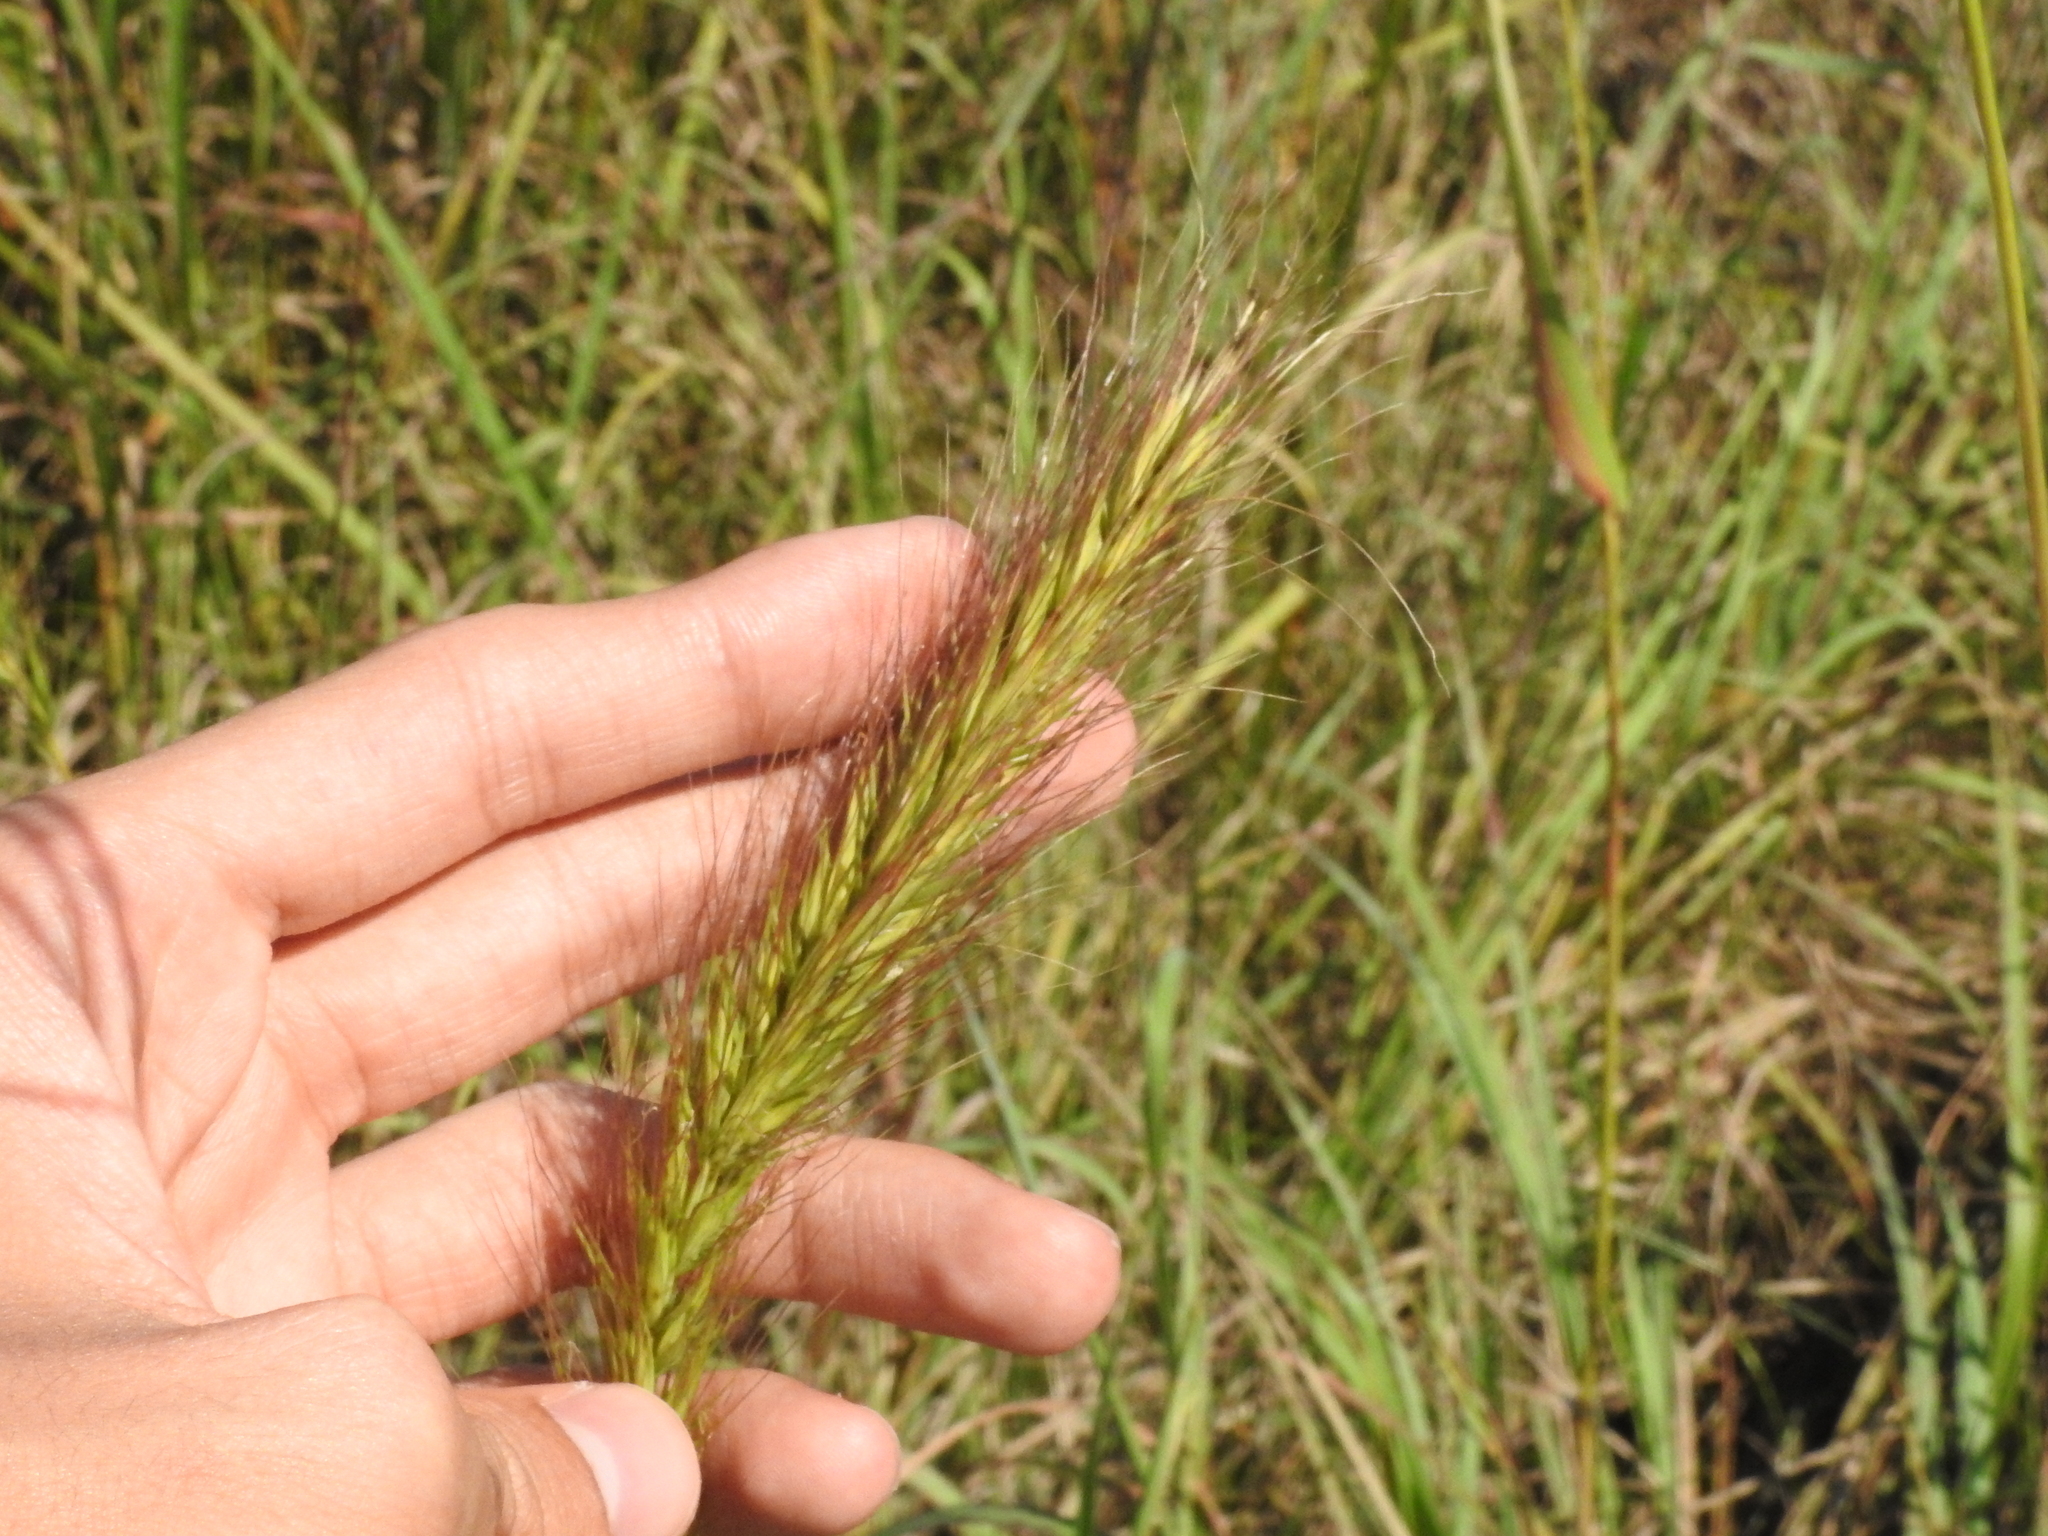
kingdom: Plantae
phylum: Tracheophyta
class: Liliopsida
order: Poales
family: Poaceae
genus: Elymus
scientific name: Elymus canadensis
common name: Canada wild rye
